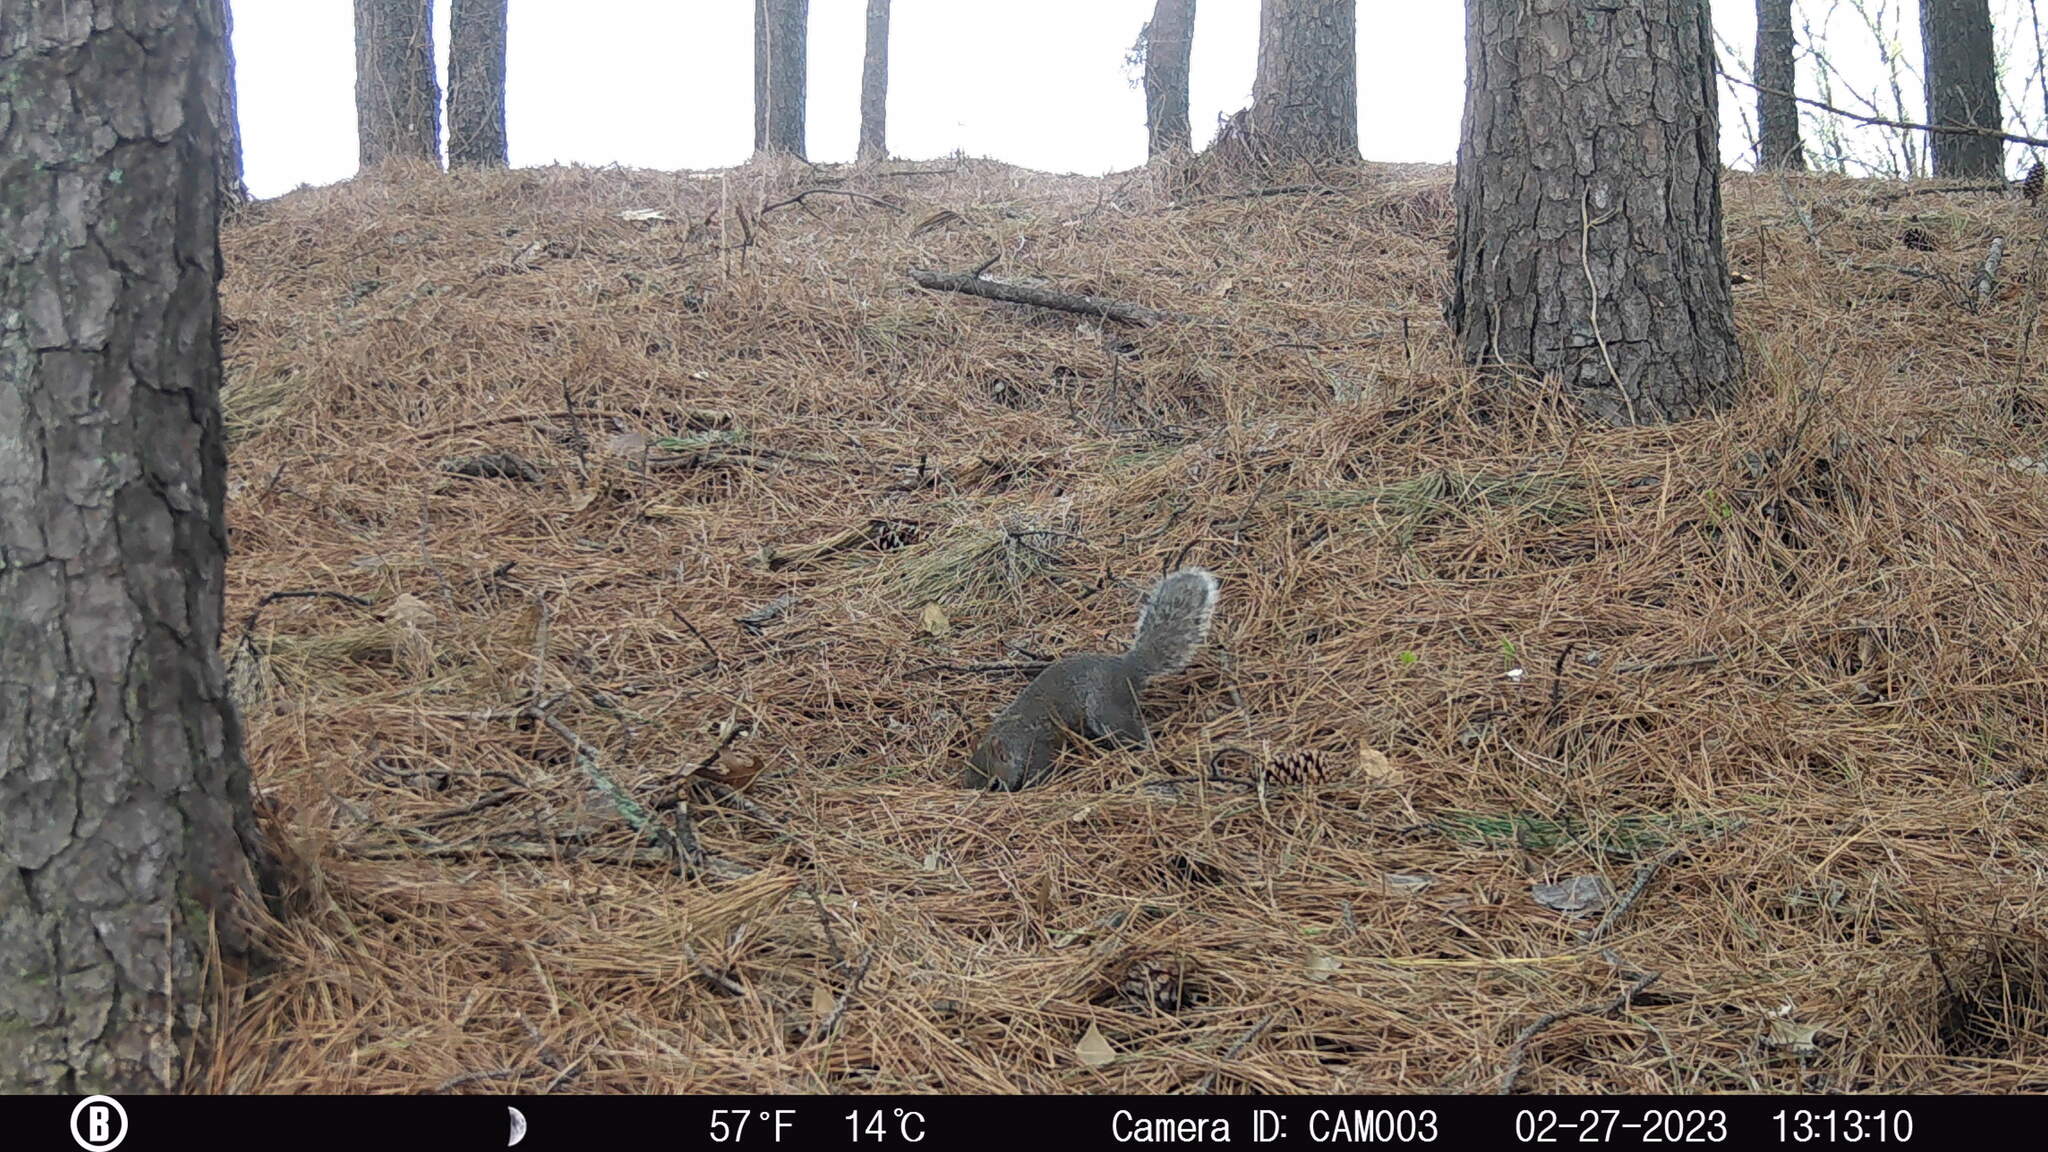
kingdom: Animalia
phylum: Chordata
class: Mammalia
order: Rodentia
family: Sciuridae
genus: Sciurus
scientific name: Sciurus carolinensis
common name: Eastern gray squirrel
